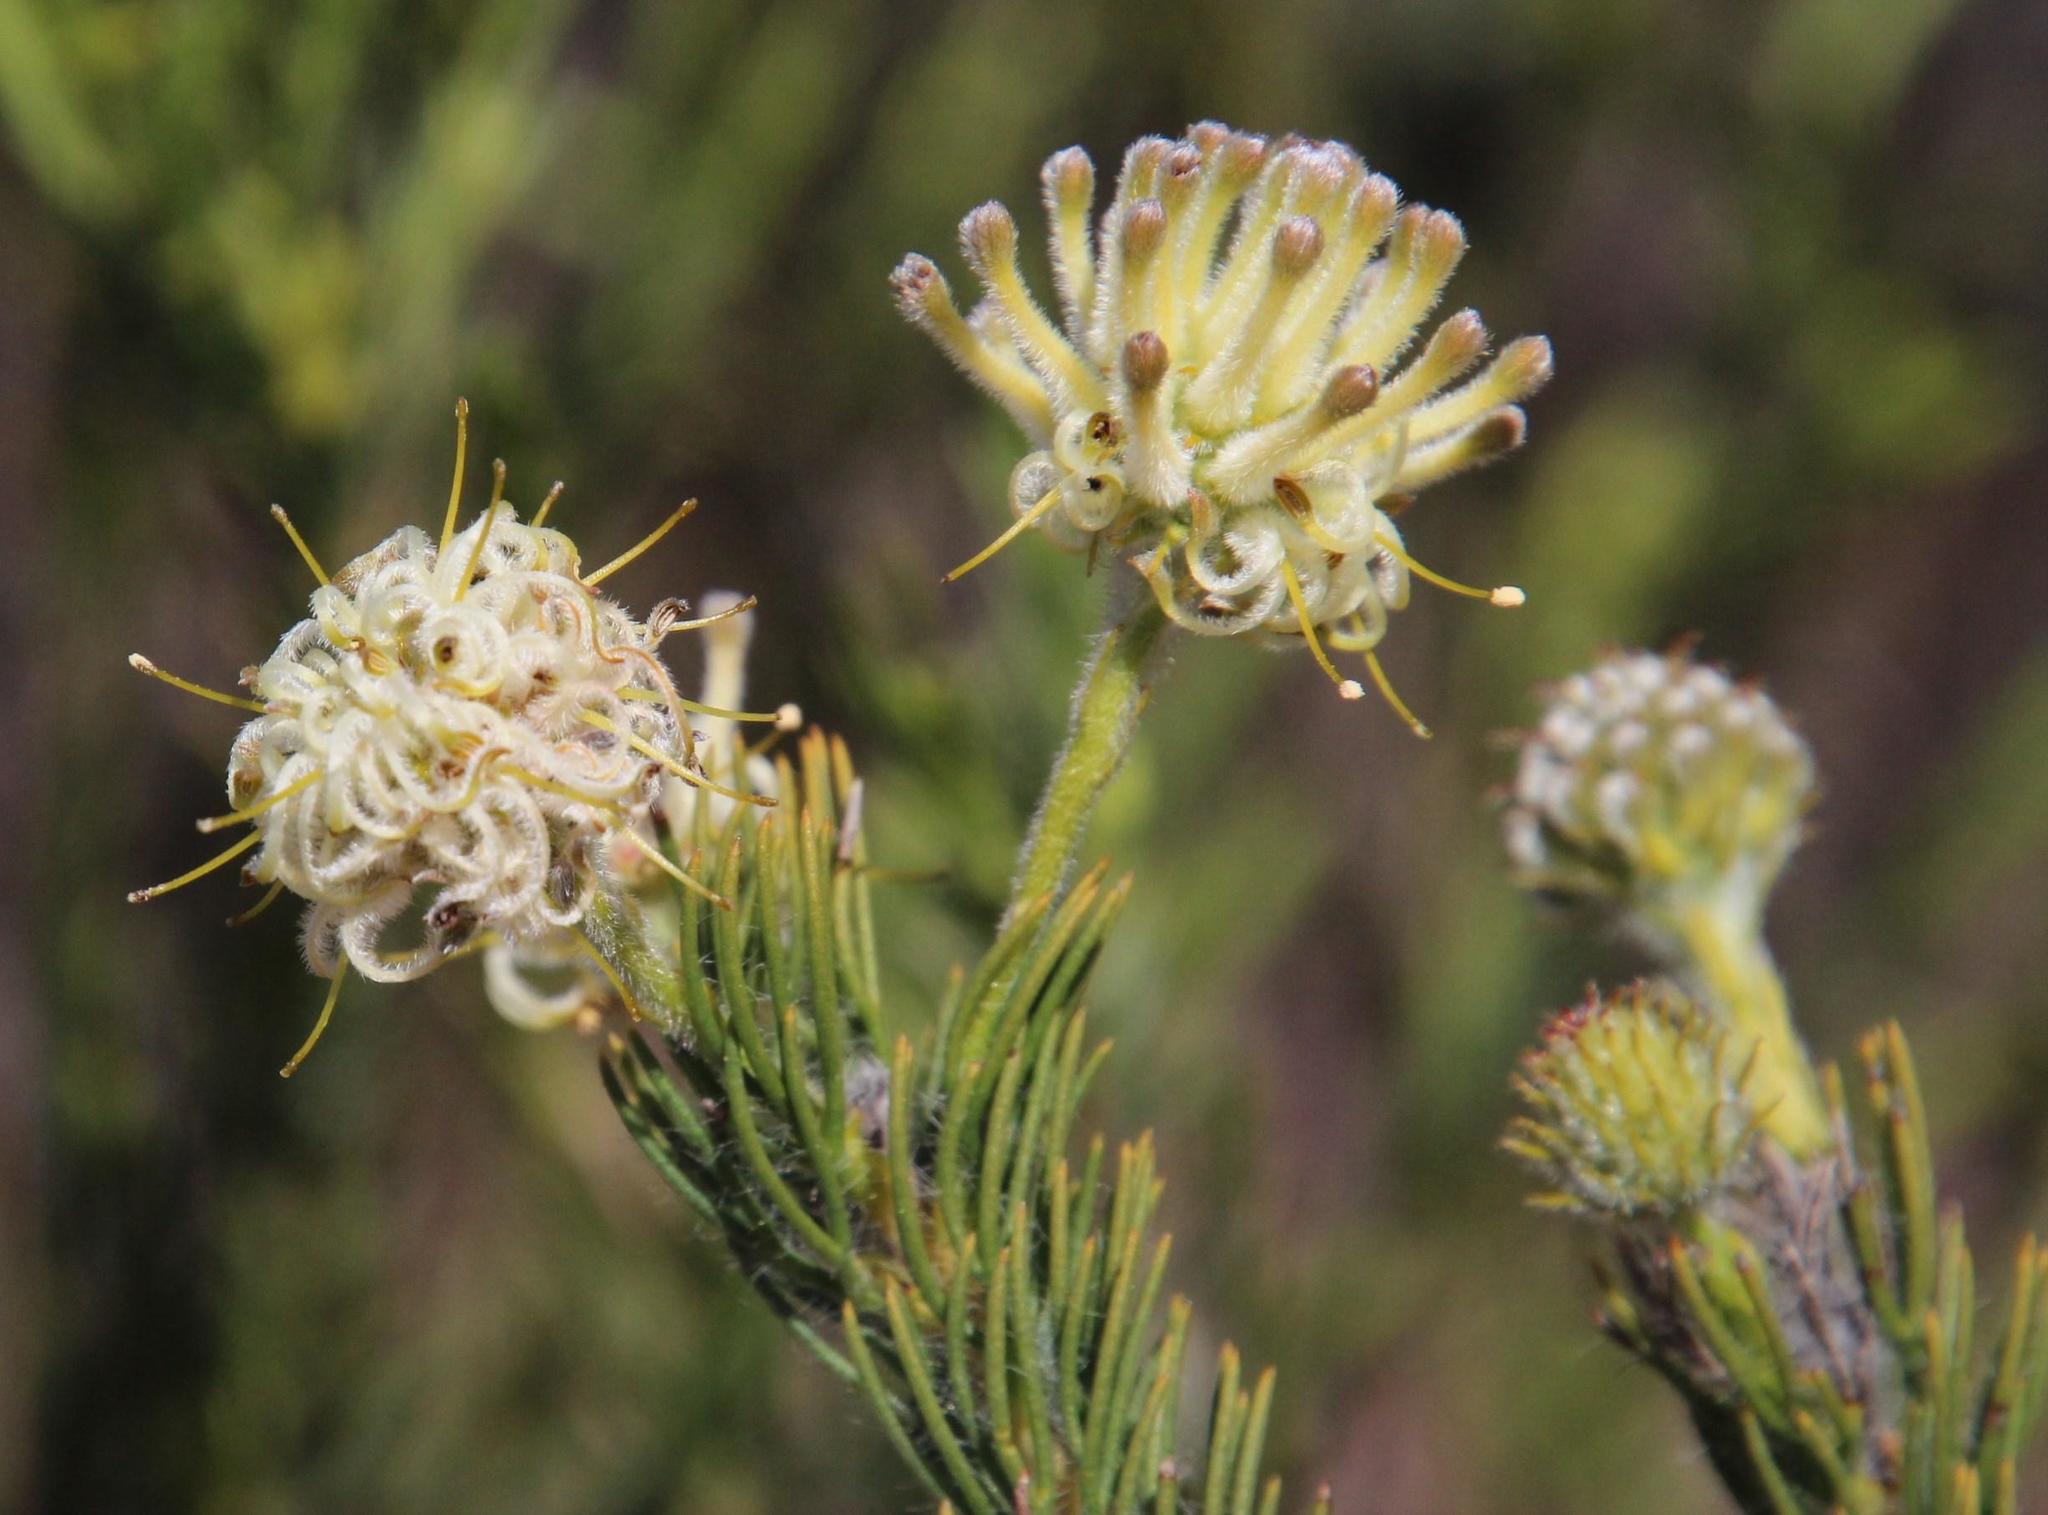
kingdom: Plantae
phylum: Tracheophyta
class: Magnoliopsida
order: Proteales
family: Proteaceae
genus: Serruria
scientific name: Serruria millefolia
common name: Millileaf spiderhead
